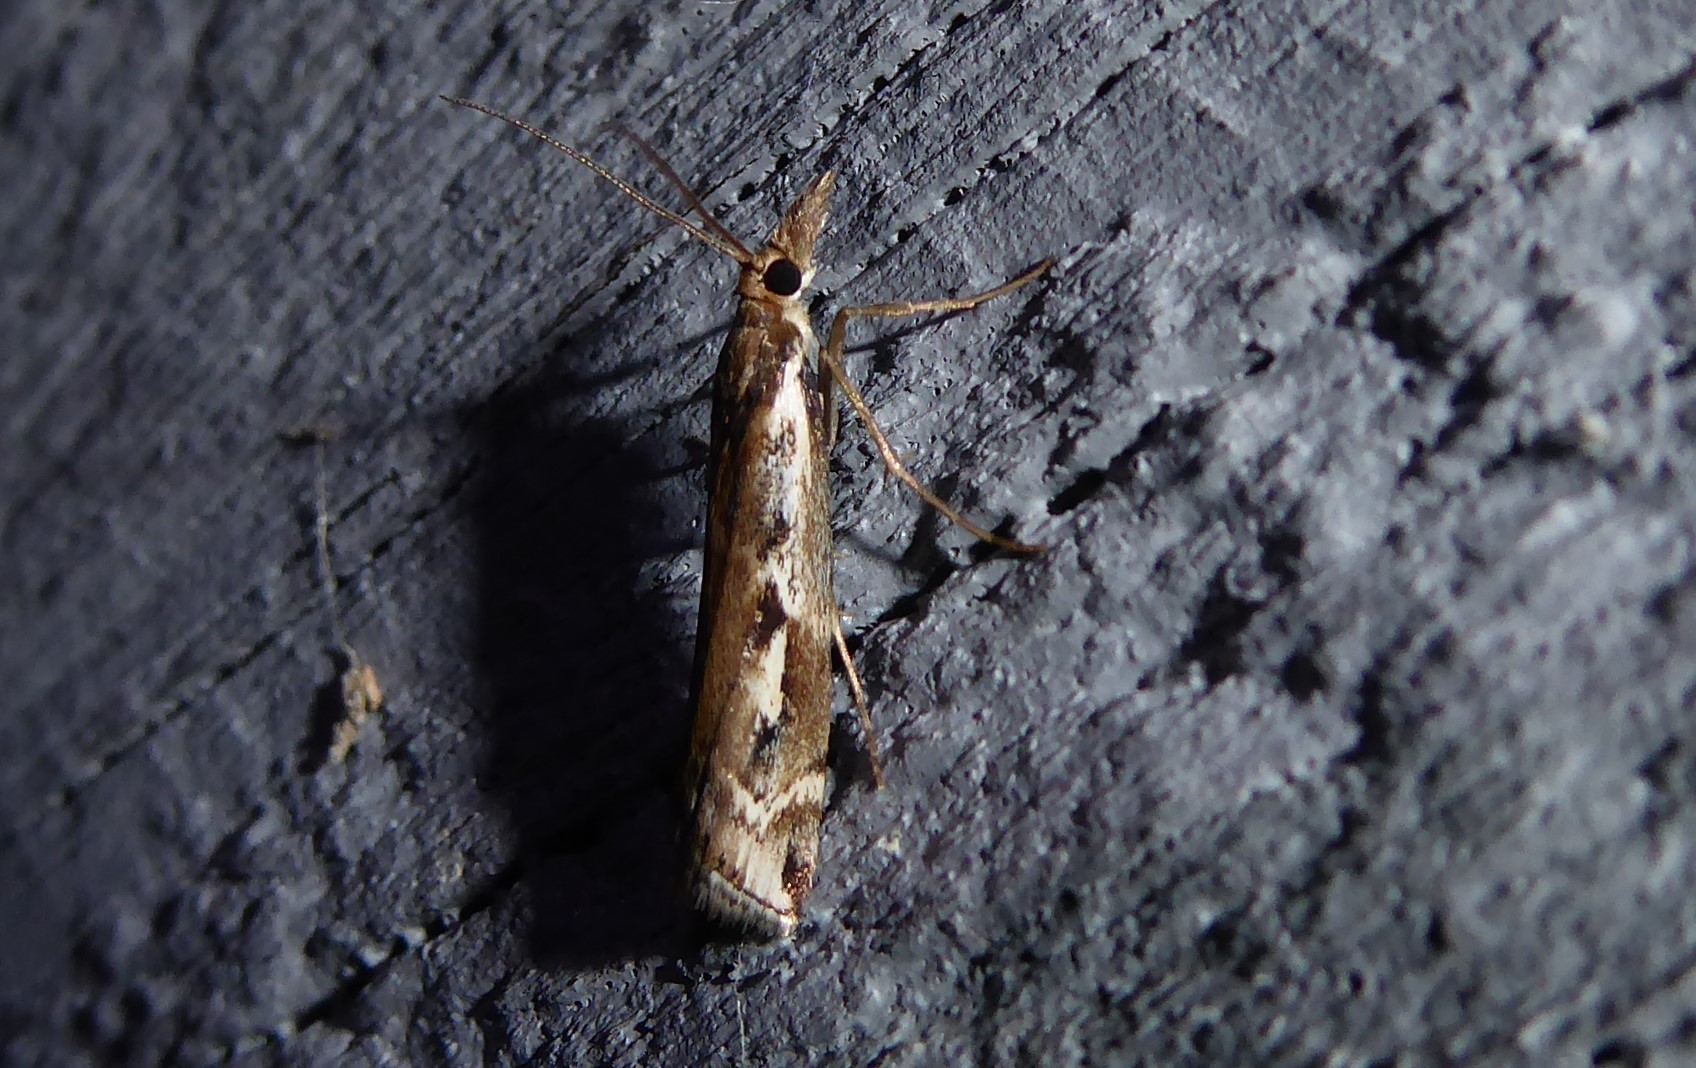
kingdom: Animalia
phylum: Arthropoda
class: Insecta
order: Lepidoptera
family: Crambidae
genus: Orocrambus
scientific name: Orocrambus vulgaris
